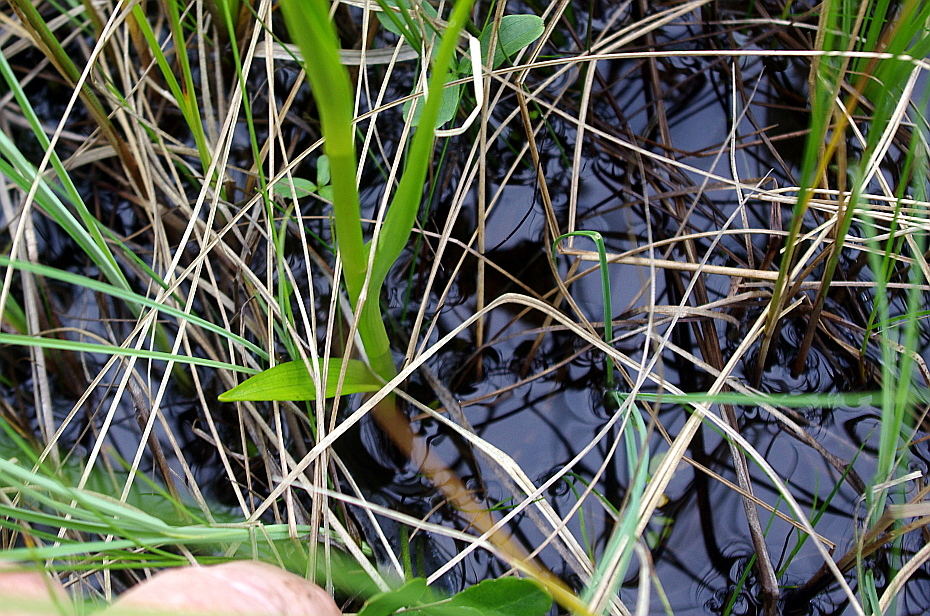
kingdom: Plantae
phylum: Tracheophyta
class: Liliopsida
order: Asparagales
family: Orchidaceae
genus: Dactylorhiza
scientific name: Dactylorhiza incarnata
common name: Early marsh-orchid
